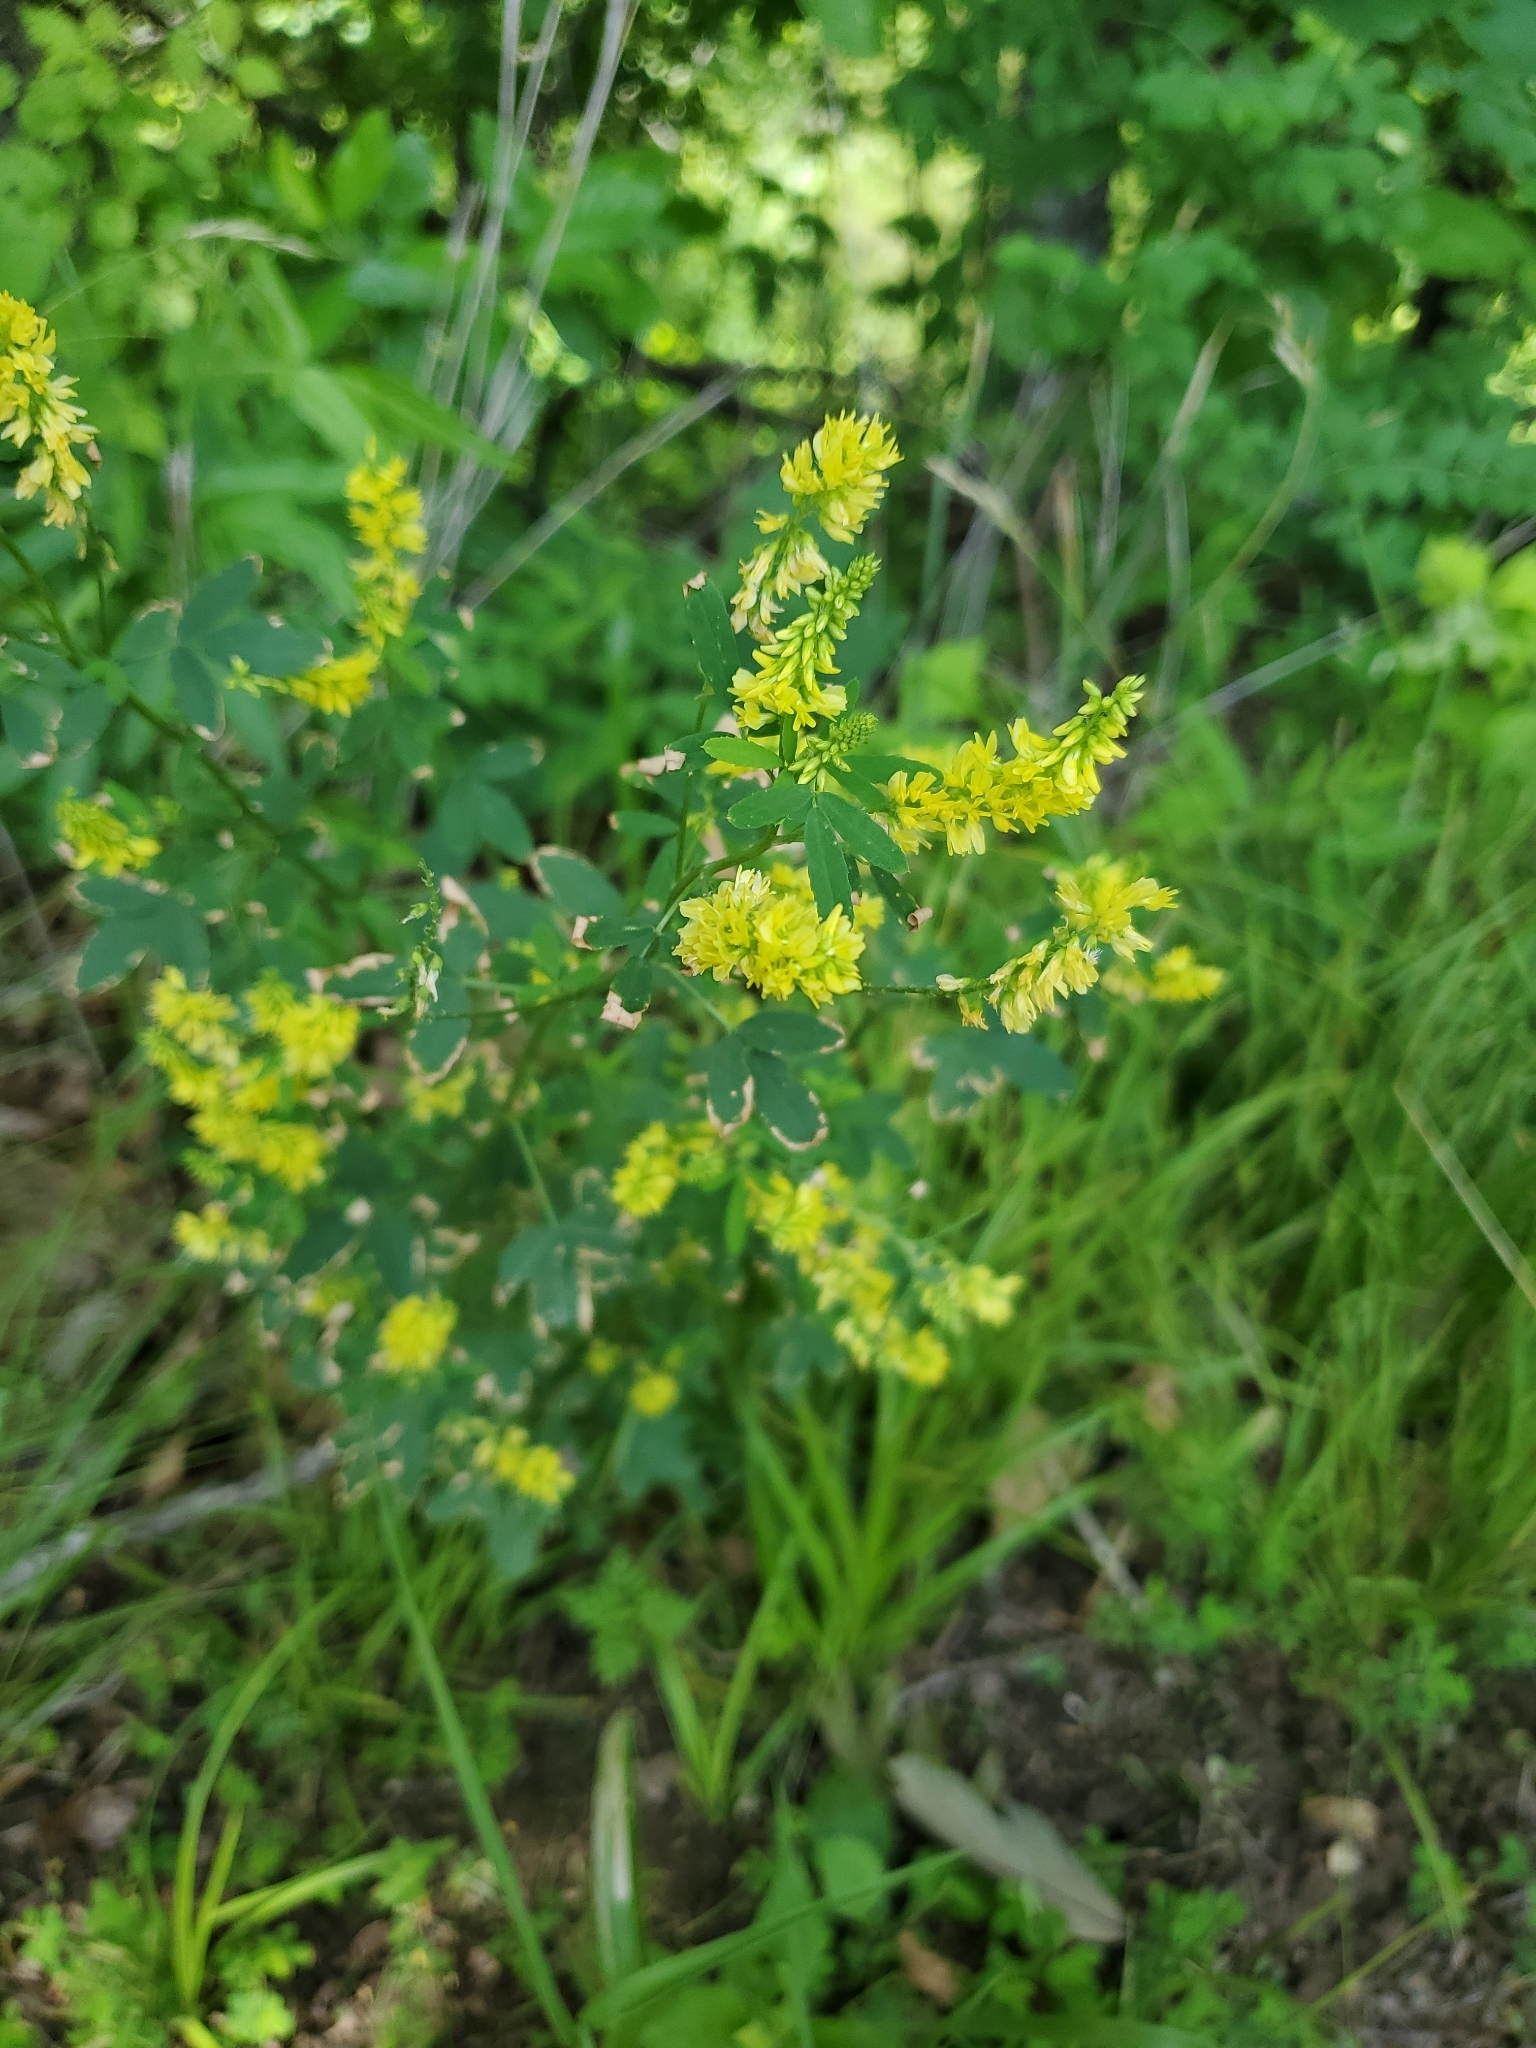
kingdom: Plantae
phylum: Tracheophyta
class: Magnoliopsida
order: Fabales
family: Fabaceae
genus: Melilotus
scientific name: Melilotus officinalis
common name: Sweetclover
